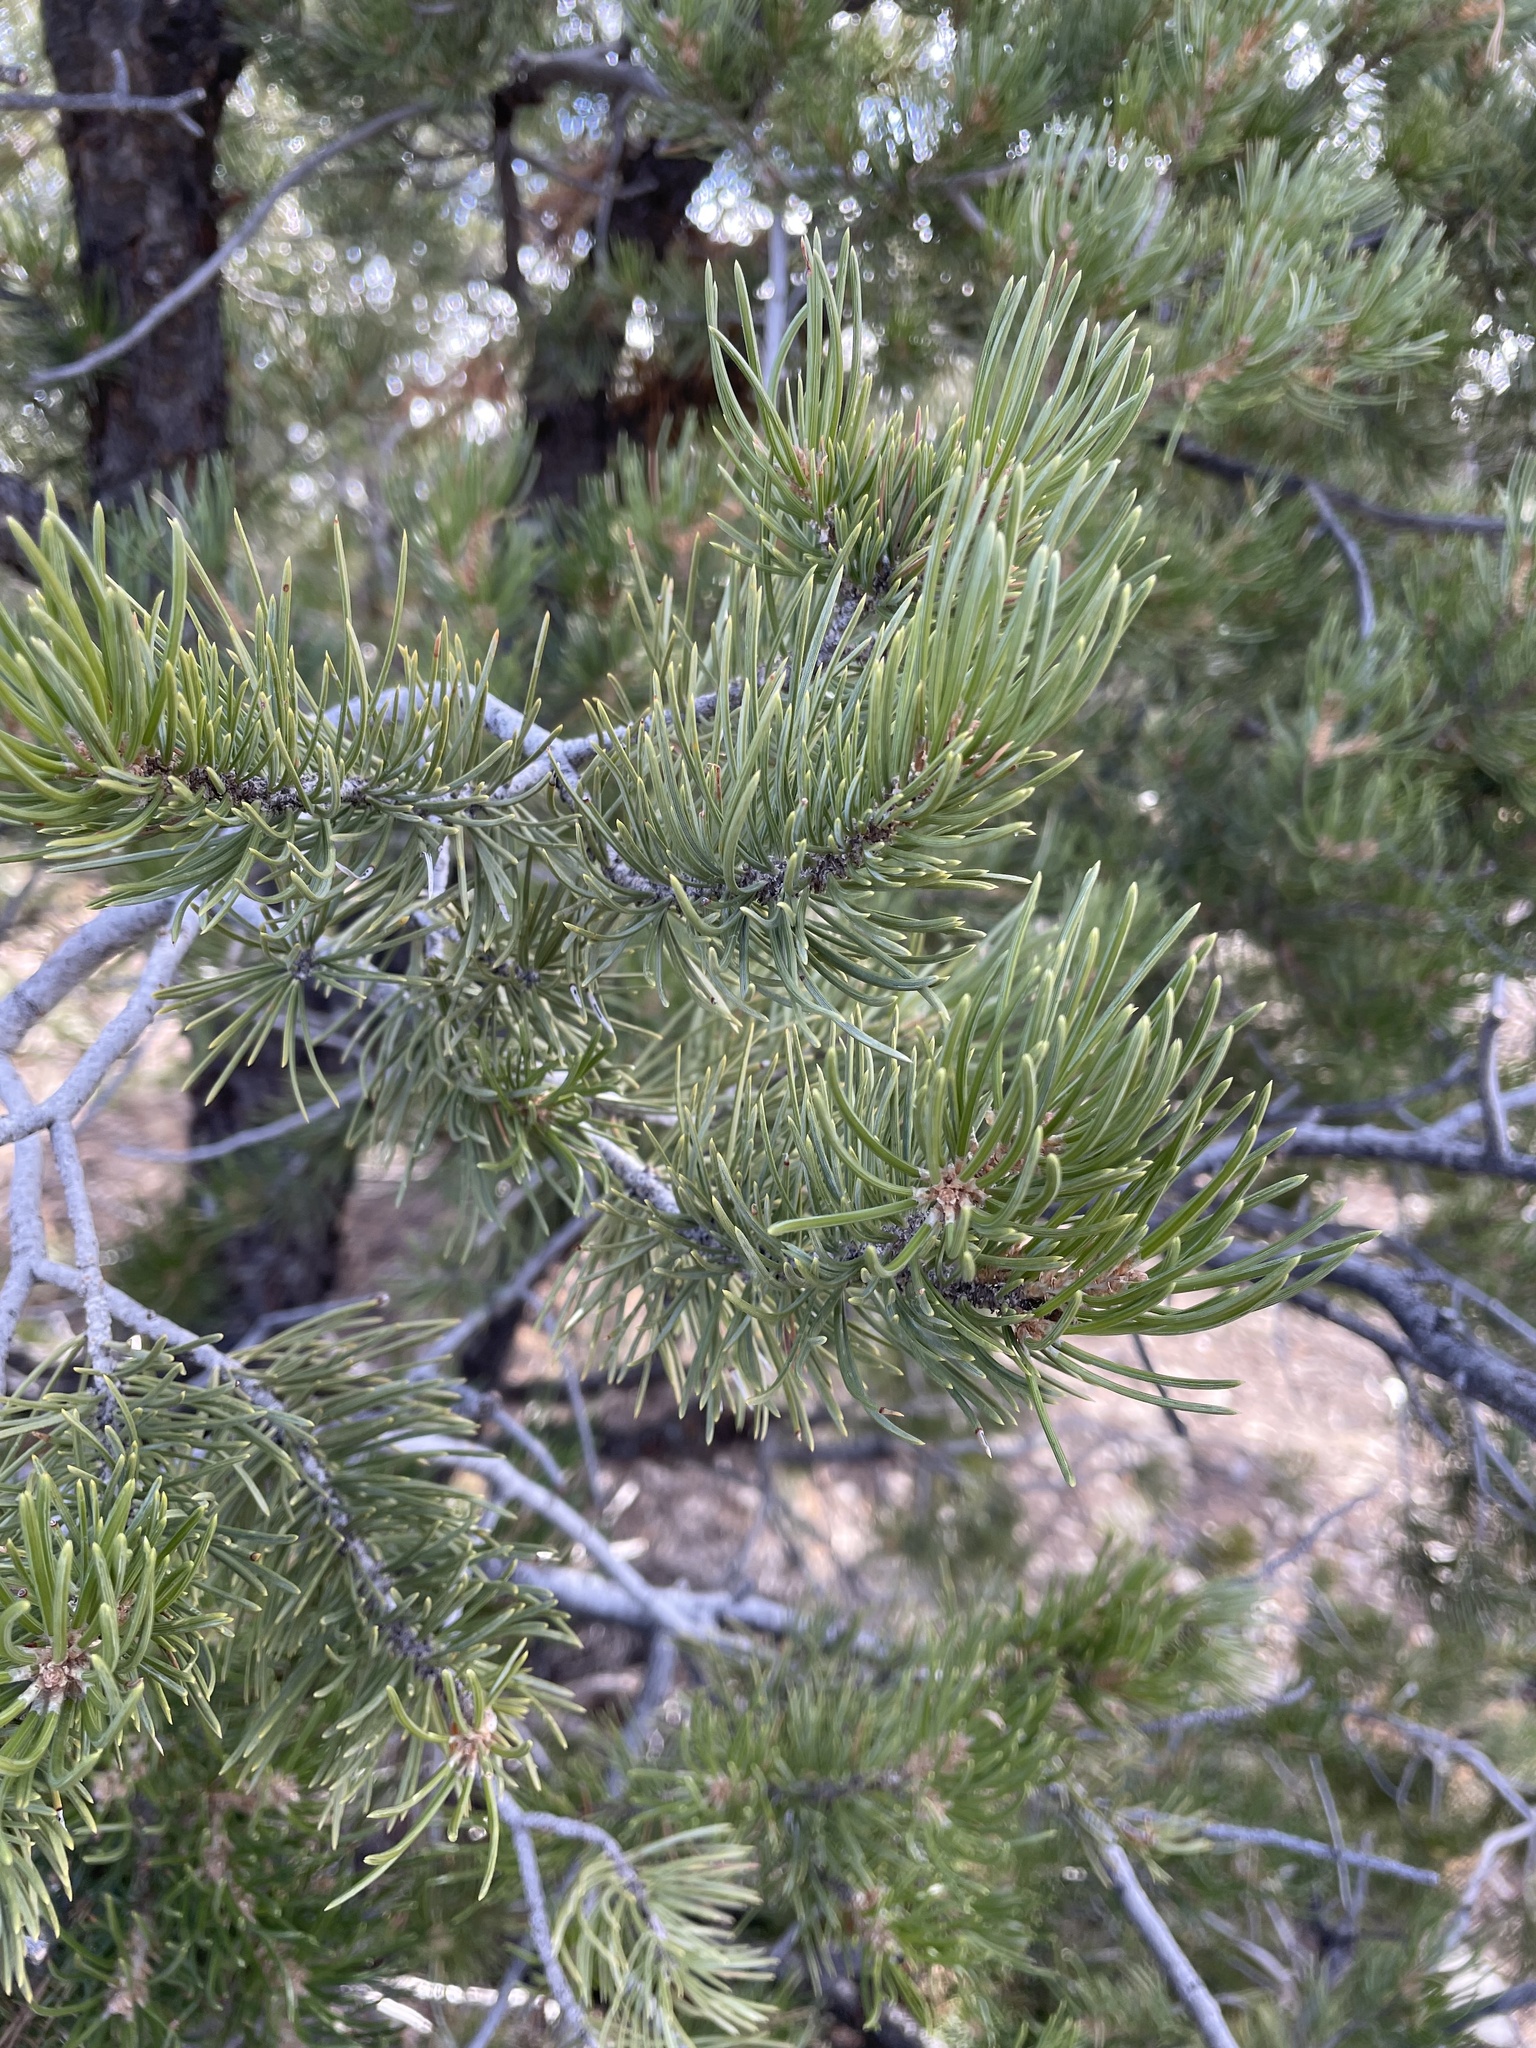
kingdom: Plantae
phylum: Tracheophyta
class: Pinopsida
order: Pinales
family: Pinaceae
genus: Pinus
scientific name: Pinus edulis
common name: Colorado pinyon
